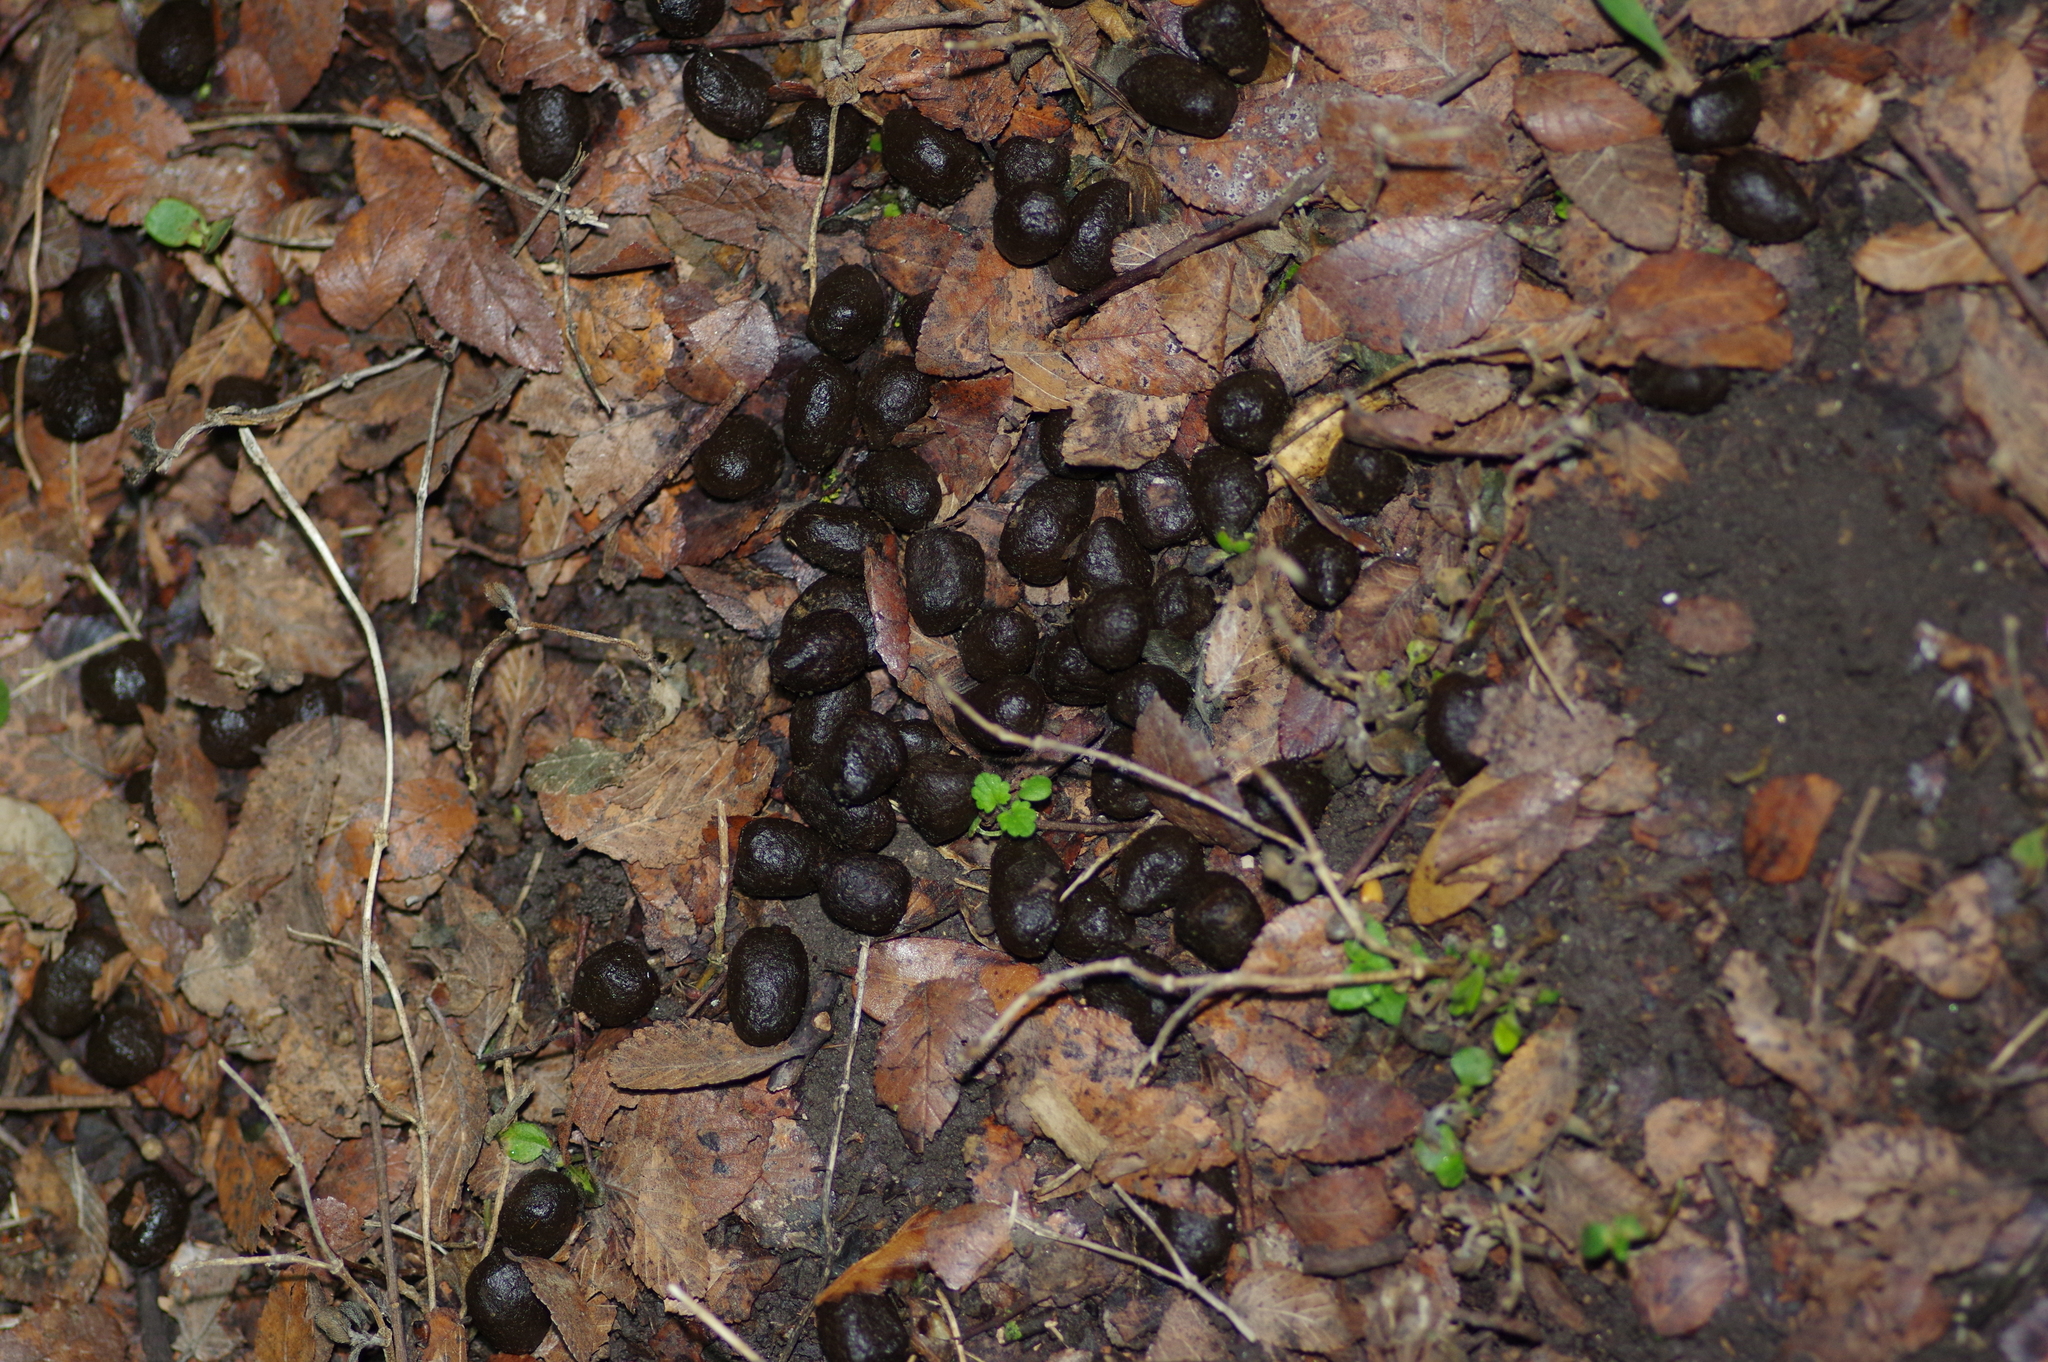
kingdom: Animalia
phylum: Chordata
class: Mammalia
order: Artiodactyla
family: Cervidae
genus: Odocoileus
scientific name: Odocoileus virginianus
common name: White-tailed deer
